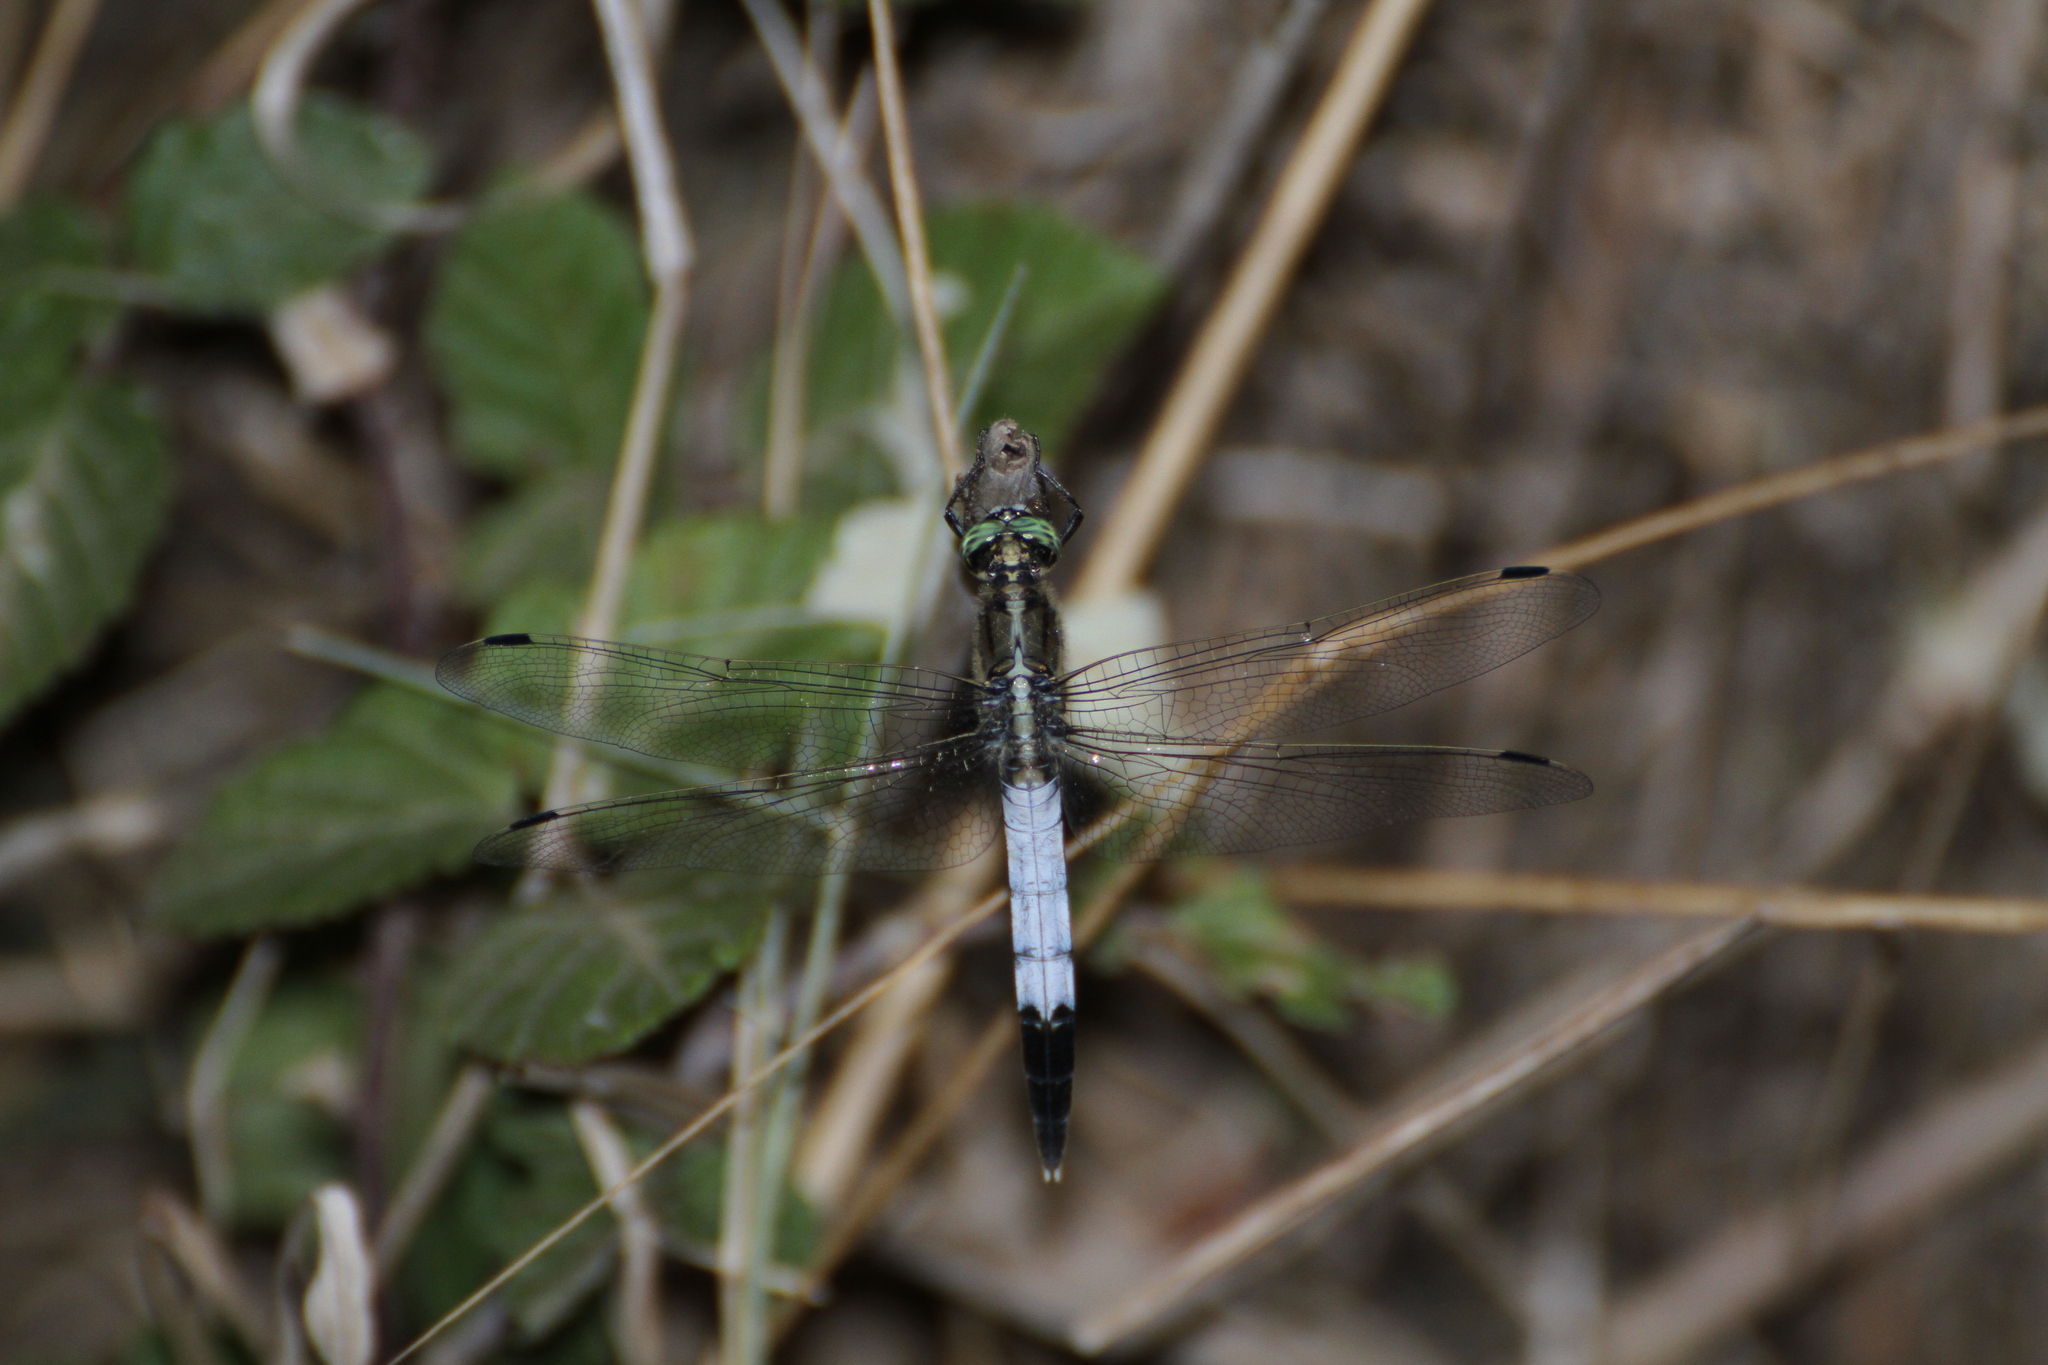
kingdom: Animalia
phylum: Arthropoda
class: Insecta
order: Odonata
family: Libellulidae
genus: Orthetrum
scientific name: Orthetrum albistylum
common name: White-tailed skimmer
